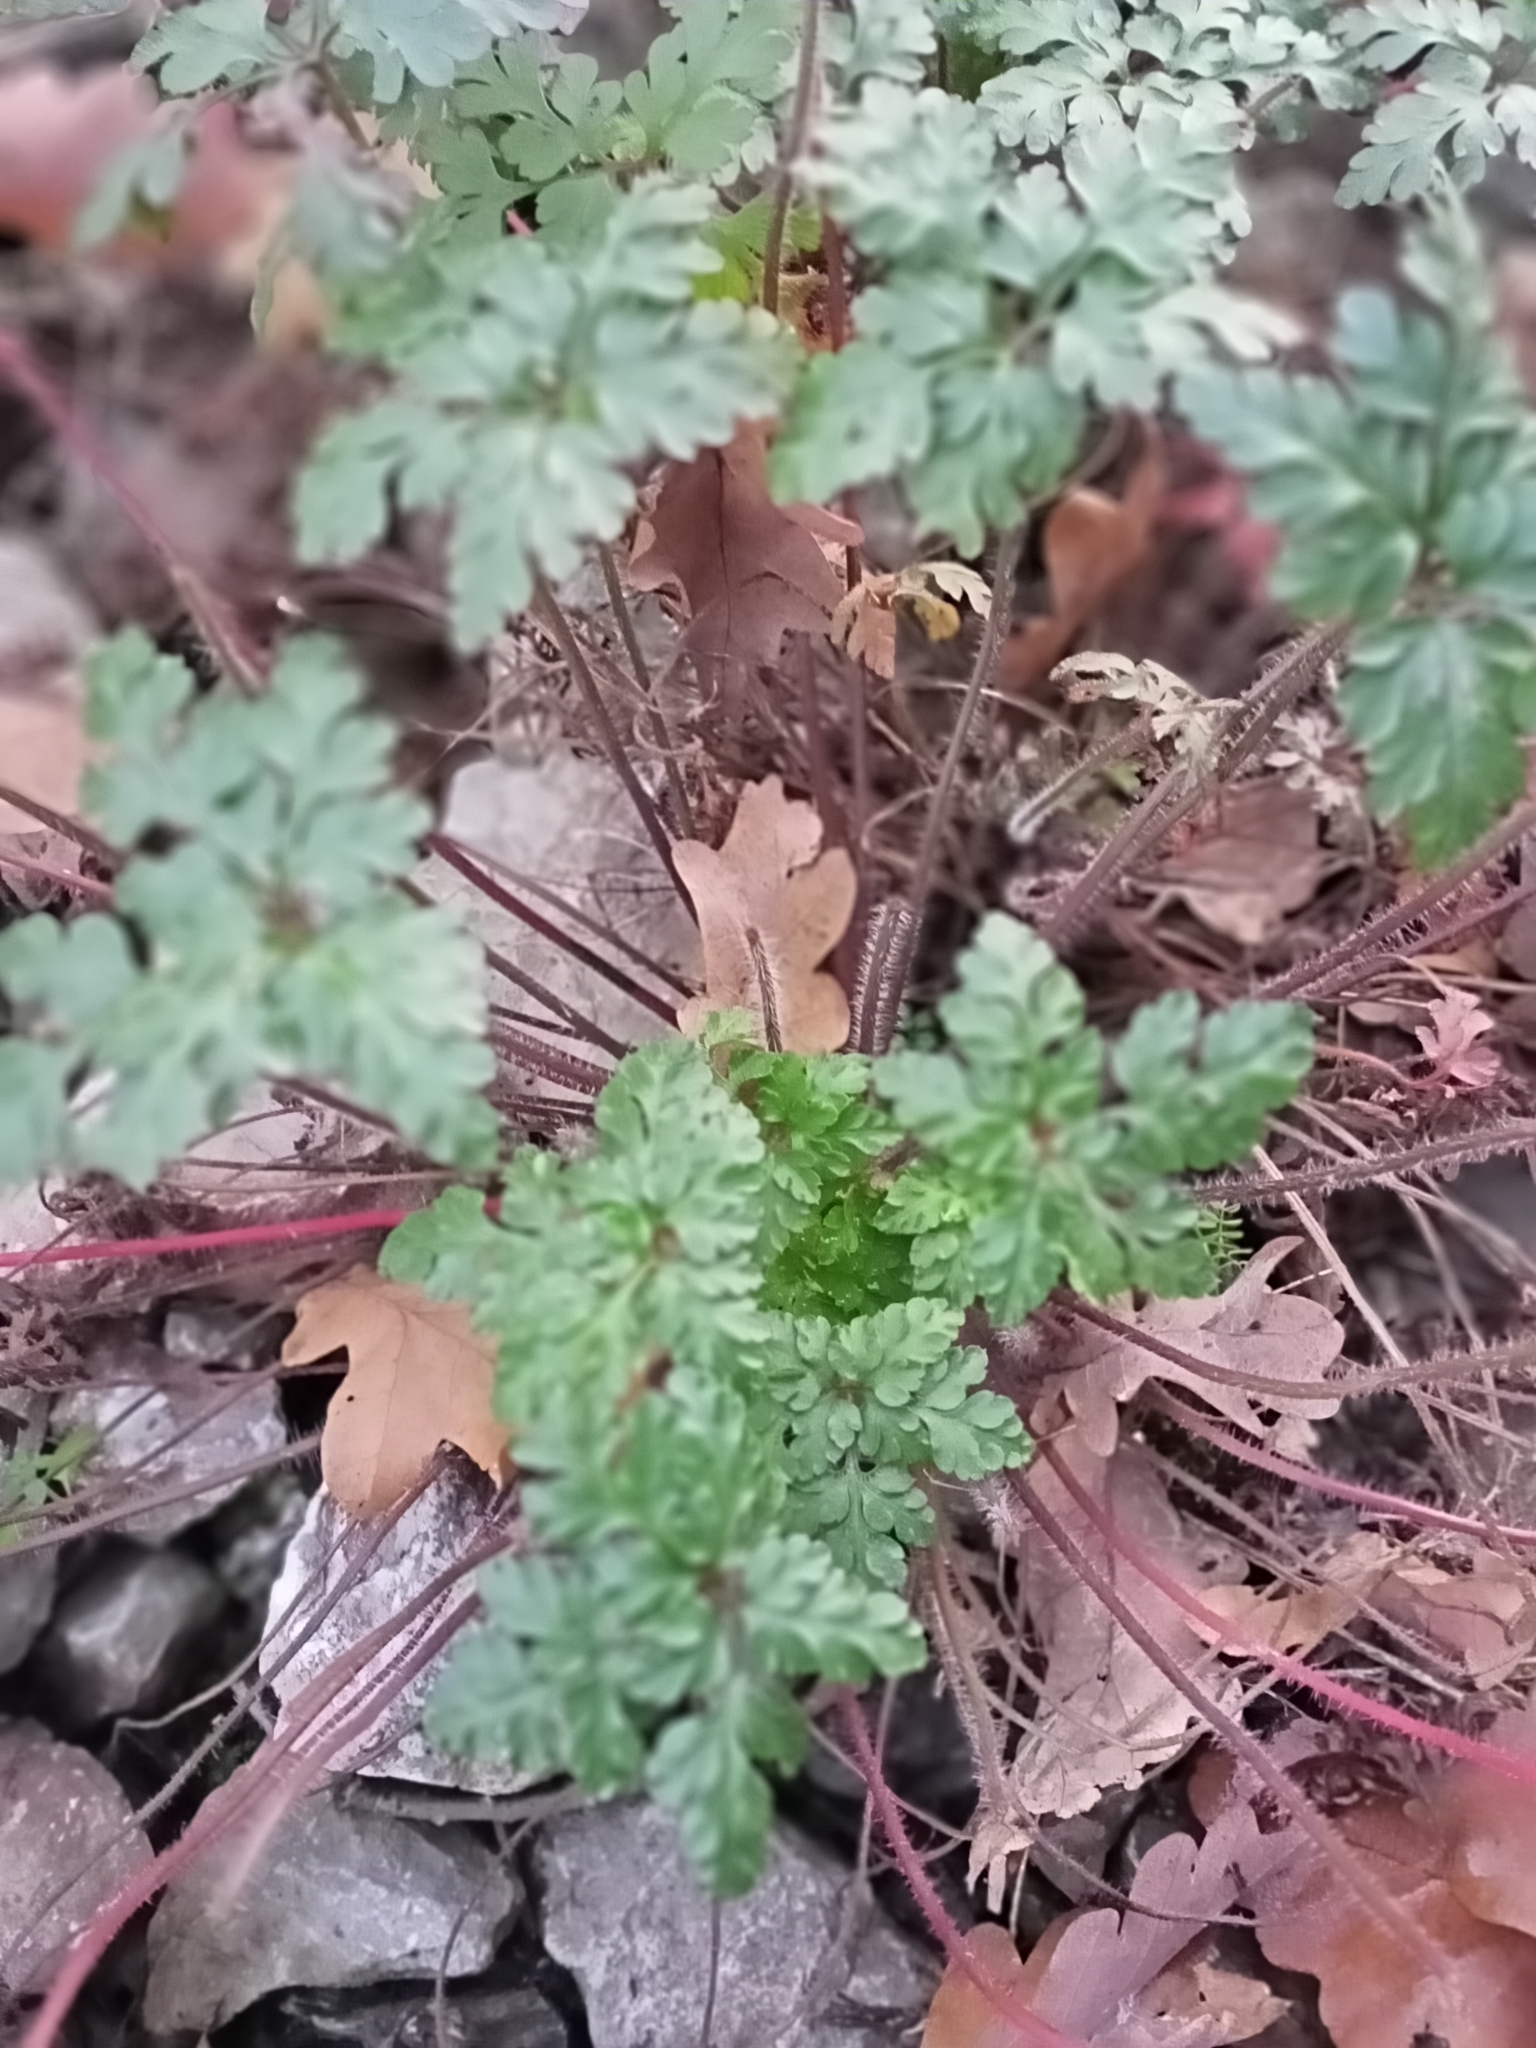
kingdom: Plantae
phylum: Tracheophyta
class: Magnoliopsida
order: Geraniales
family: Geraniaceae
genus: Geranium
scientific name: Geranium robertianum
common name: Herb-robert
